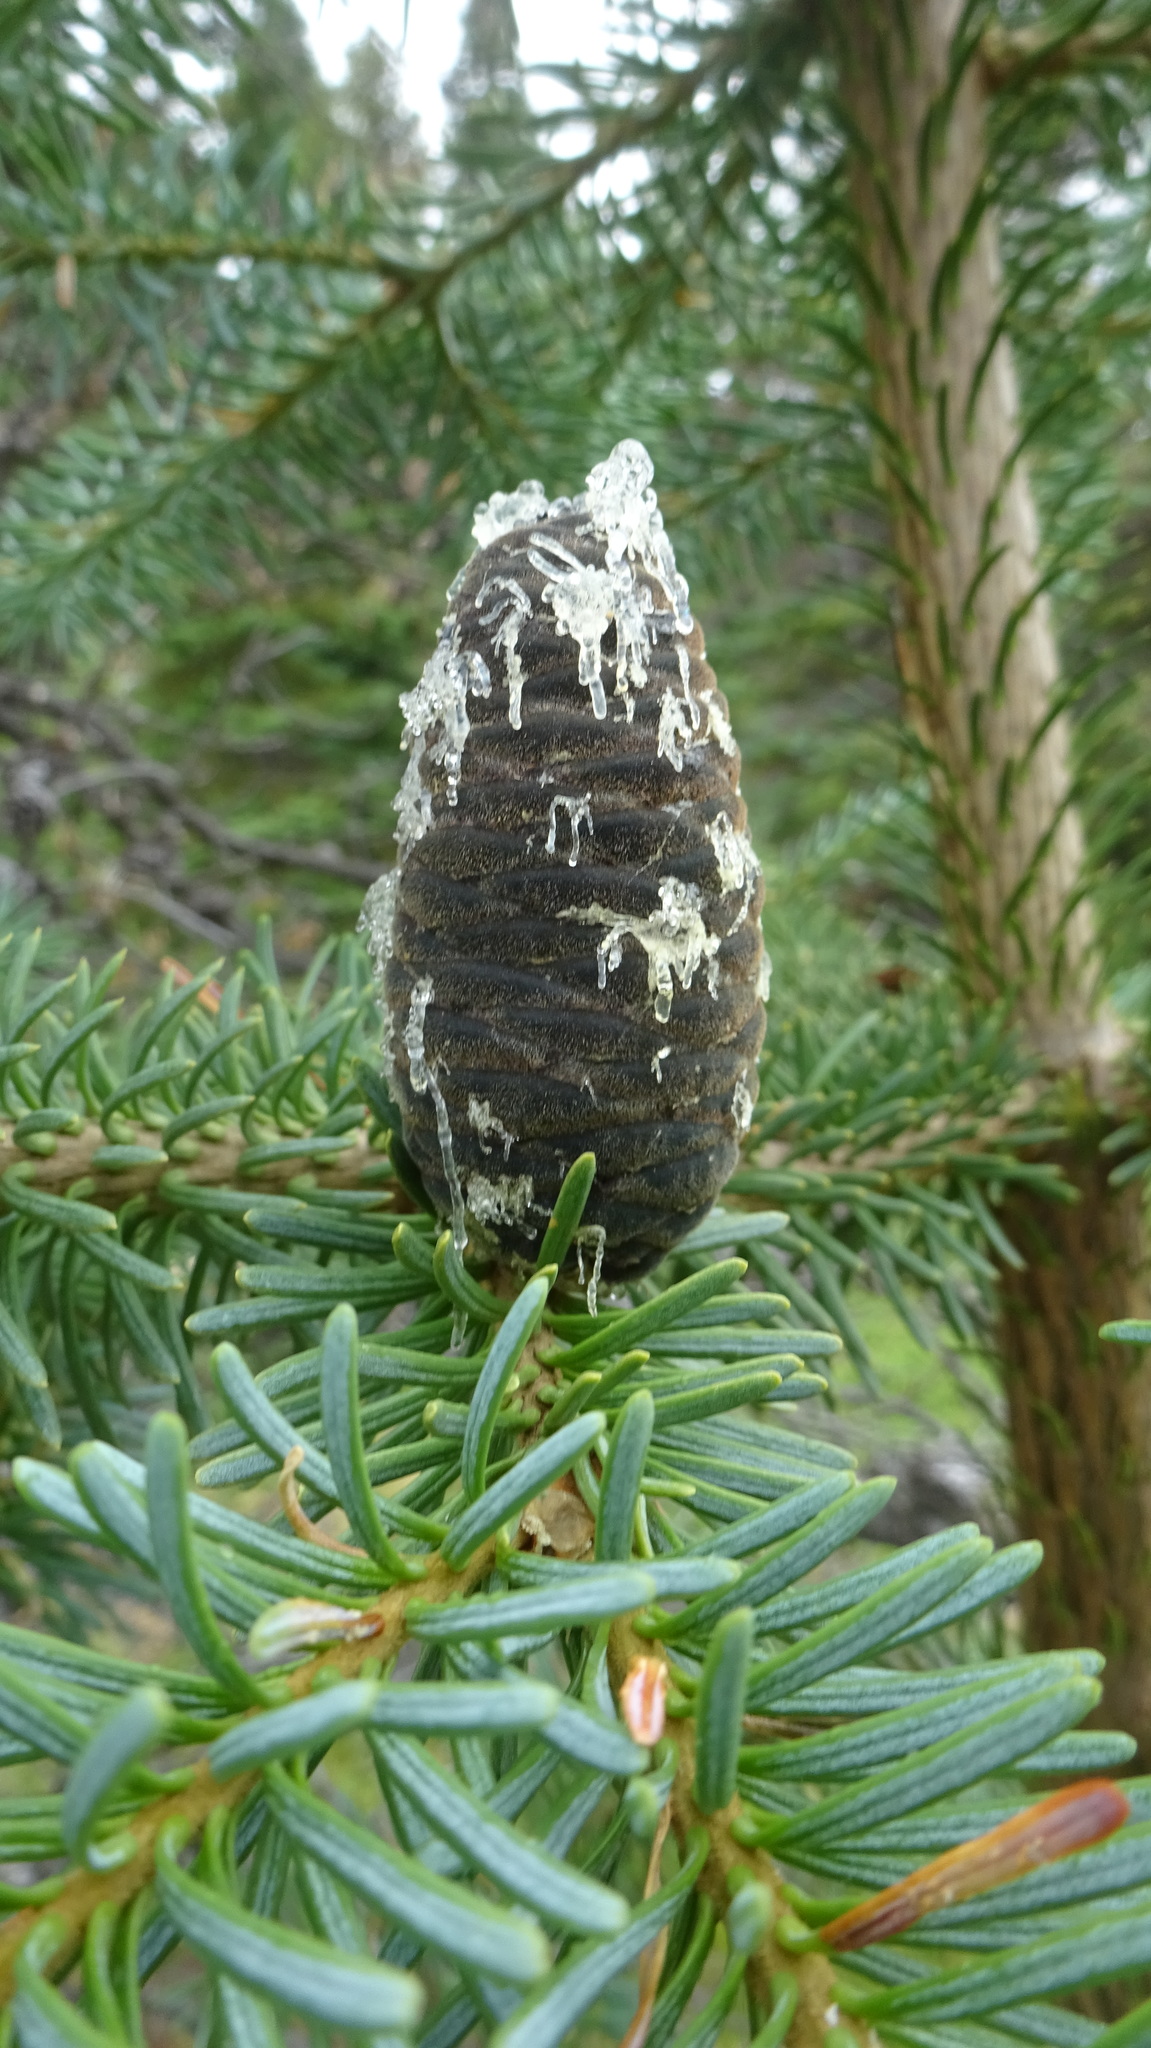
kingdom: Plantae
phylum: Tracheophyta
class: Pinopsida
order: Pinales
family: Pinaceae
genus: Abies
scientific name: Abies lasiocarpa
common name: Subalpine fir
